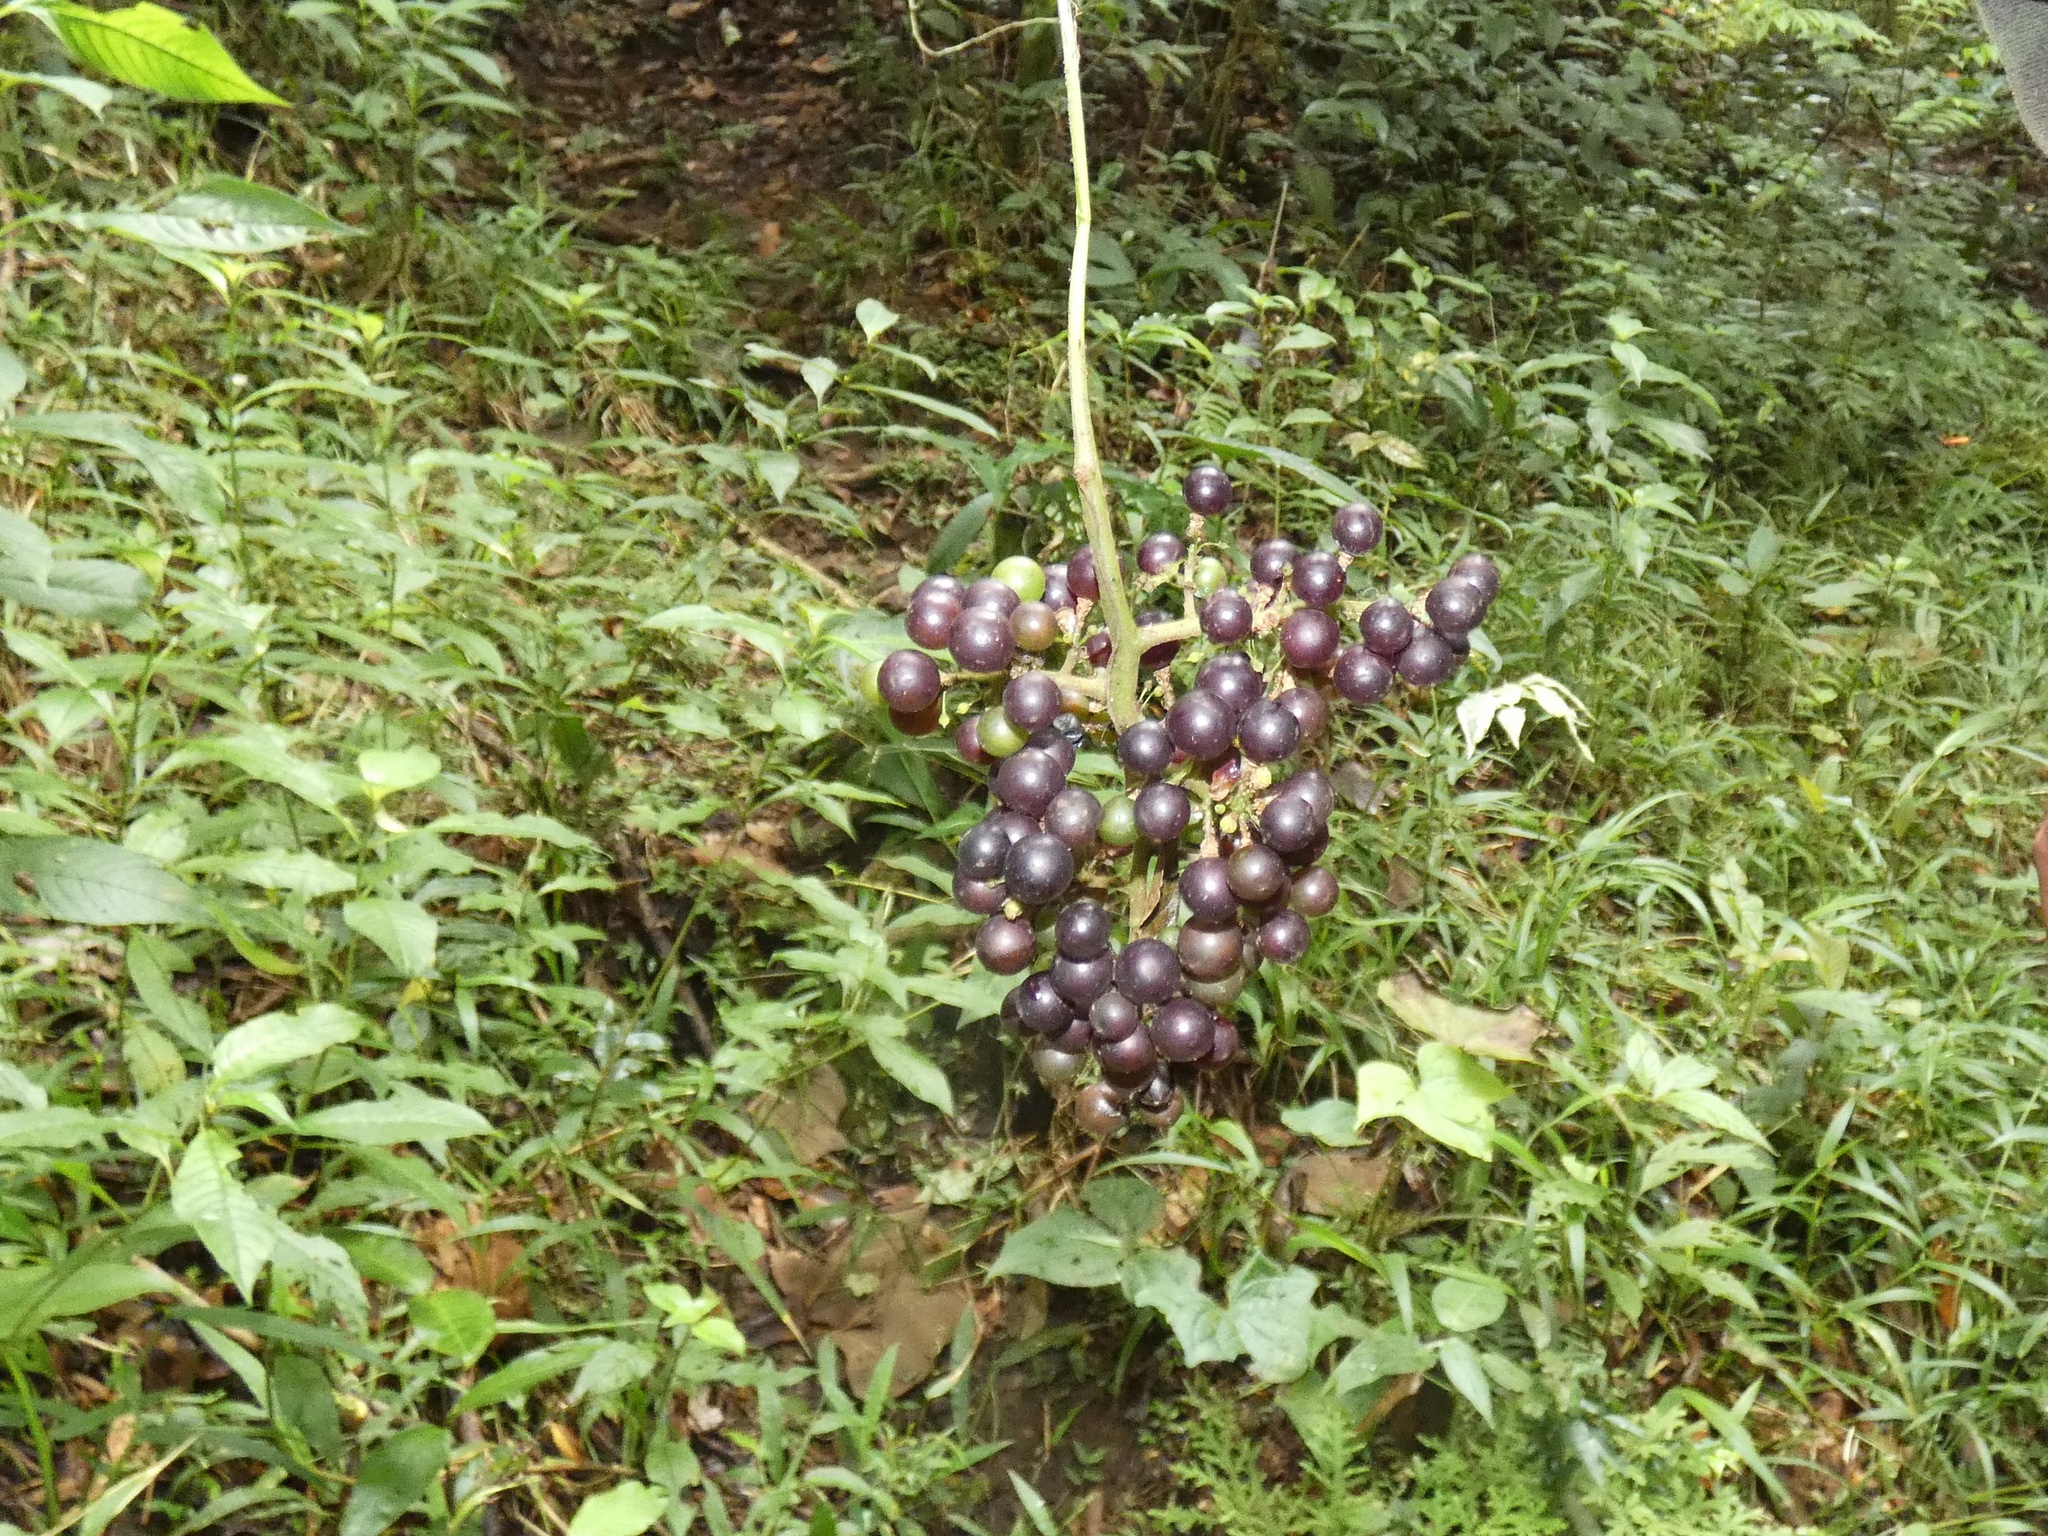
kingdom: Plantae
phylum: Tracheophyta
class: Magnoliopsida
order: Vitales
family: Vitaceae
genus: Vitis
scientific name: Vitis tiliifolia
